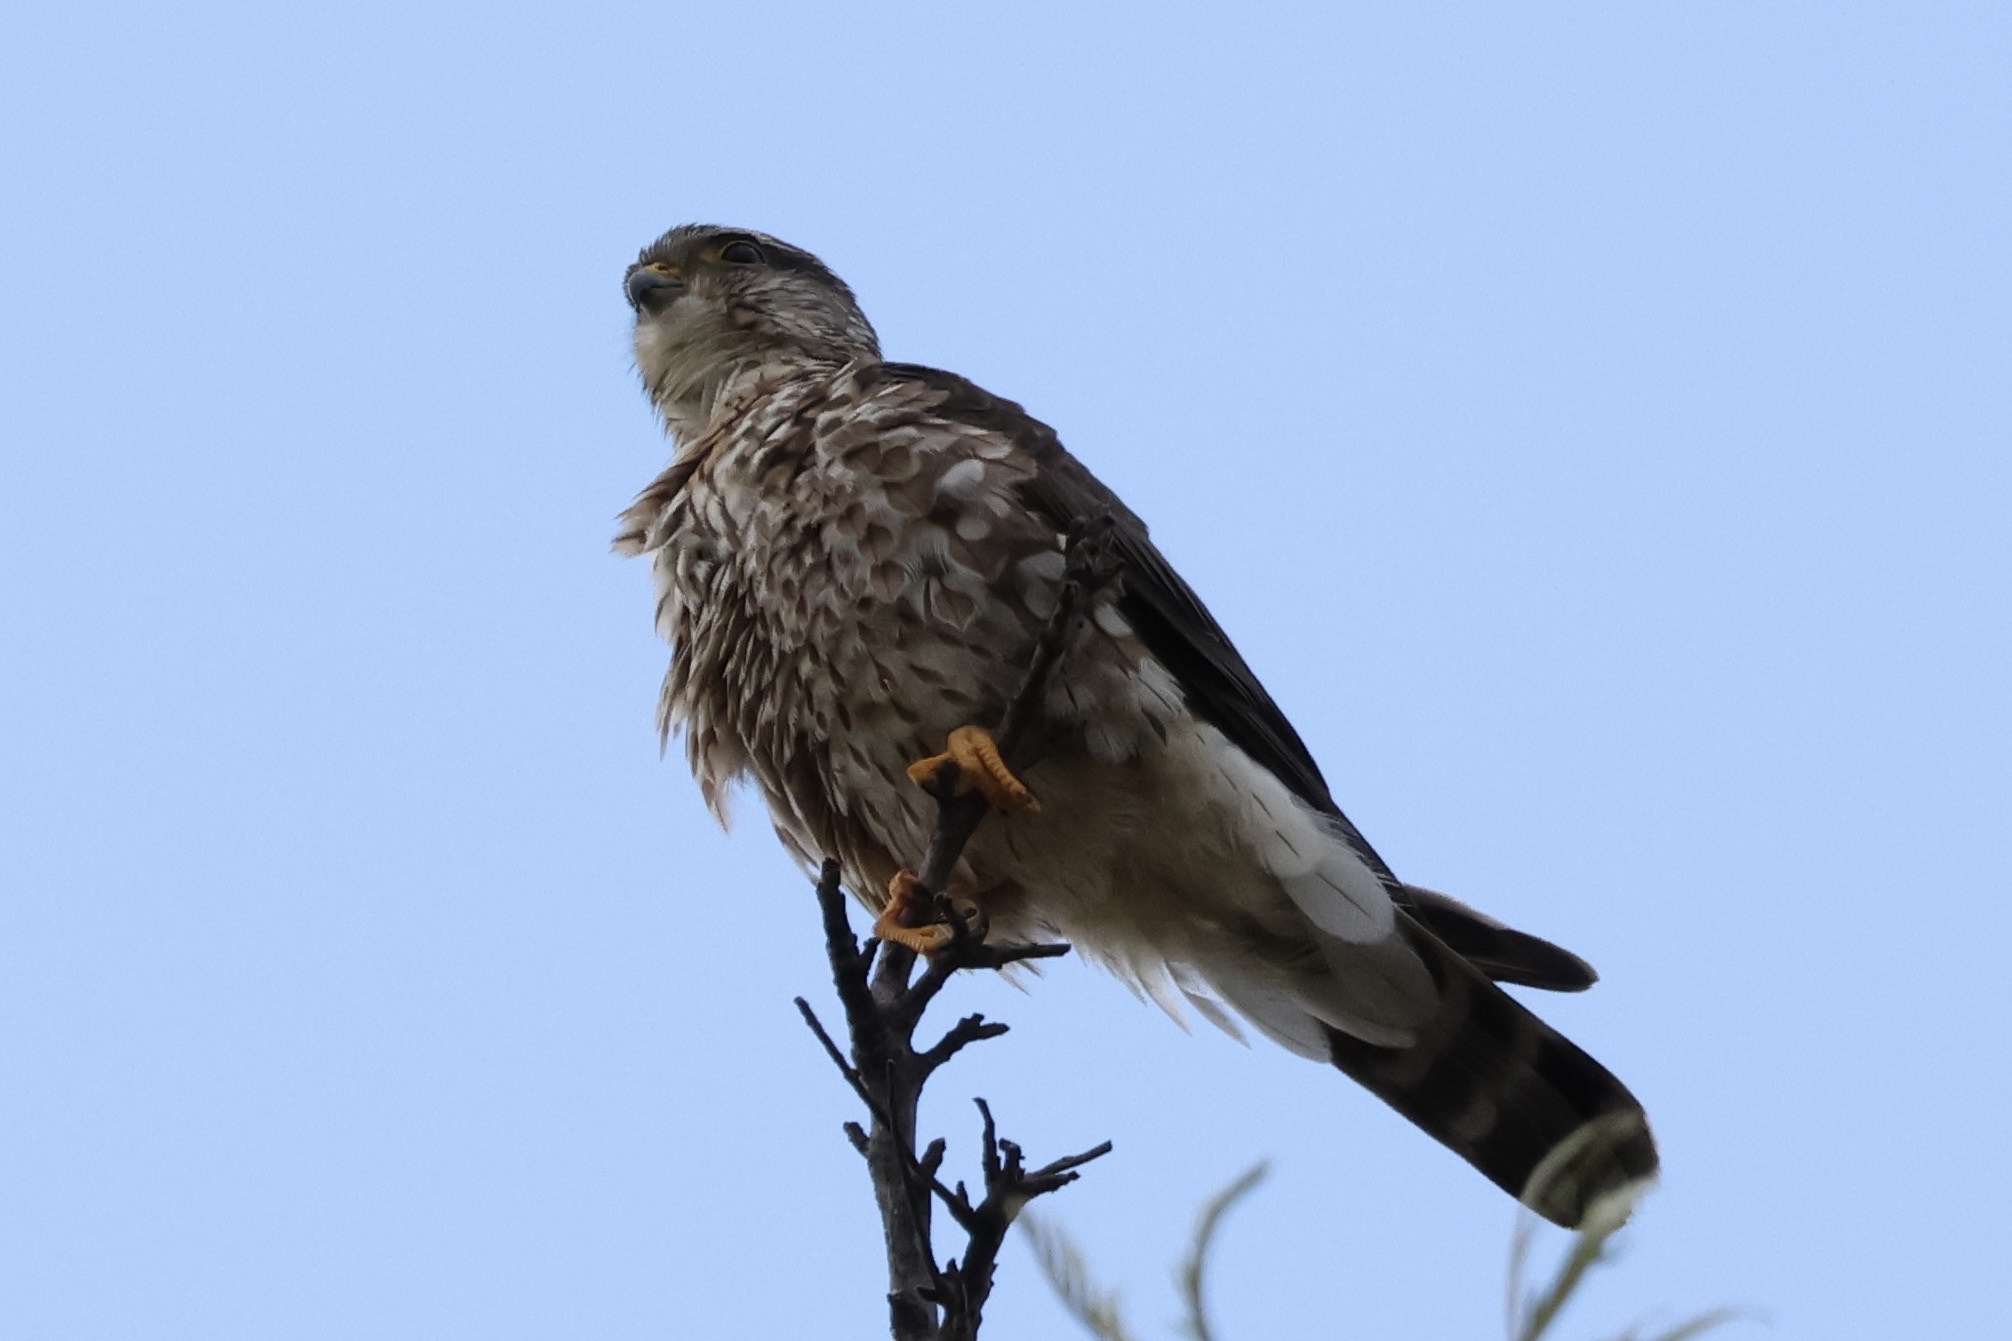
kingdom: Animalia
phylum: Chordata
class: Aves
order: Falconiformes
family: Falconidae
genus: Falco
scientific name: Falco columbarius
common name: Merlin
